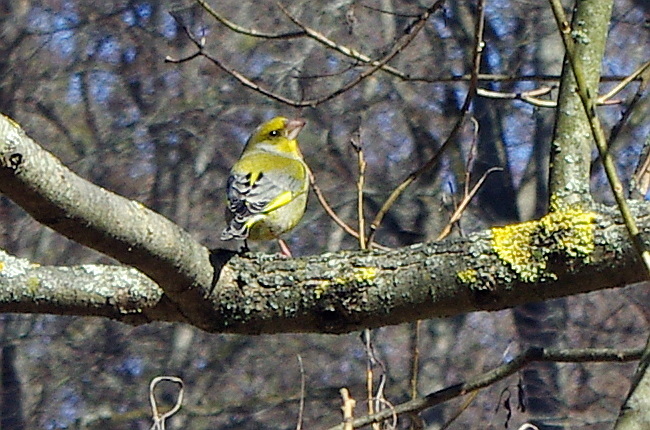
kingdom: Plantae
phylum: Tracheophyta
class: Liliopsida
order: Poales
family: Poaceae
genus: Chloris
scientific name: Chloris chloris
